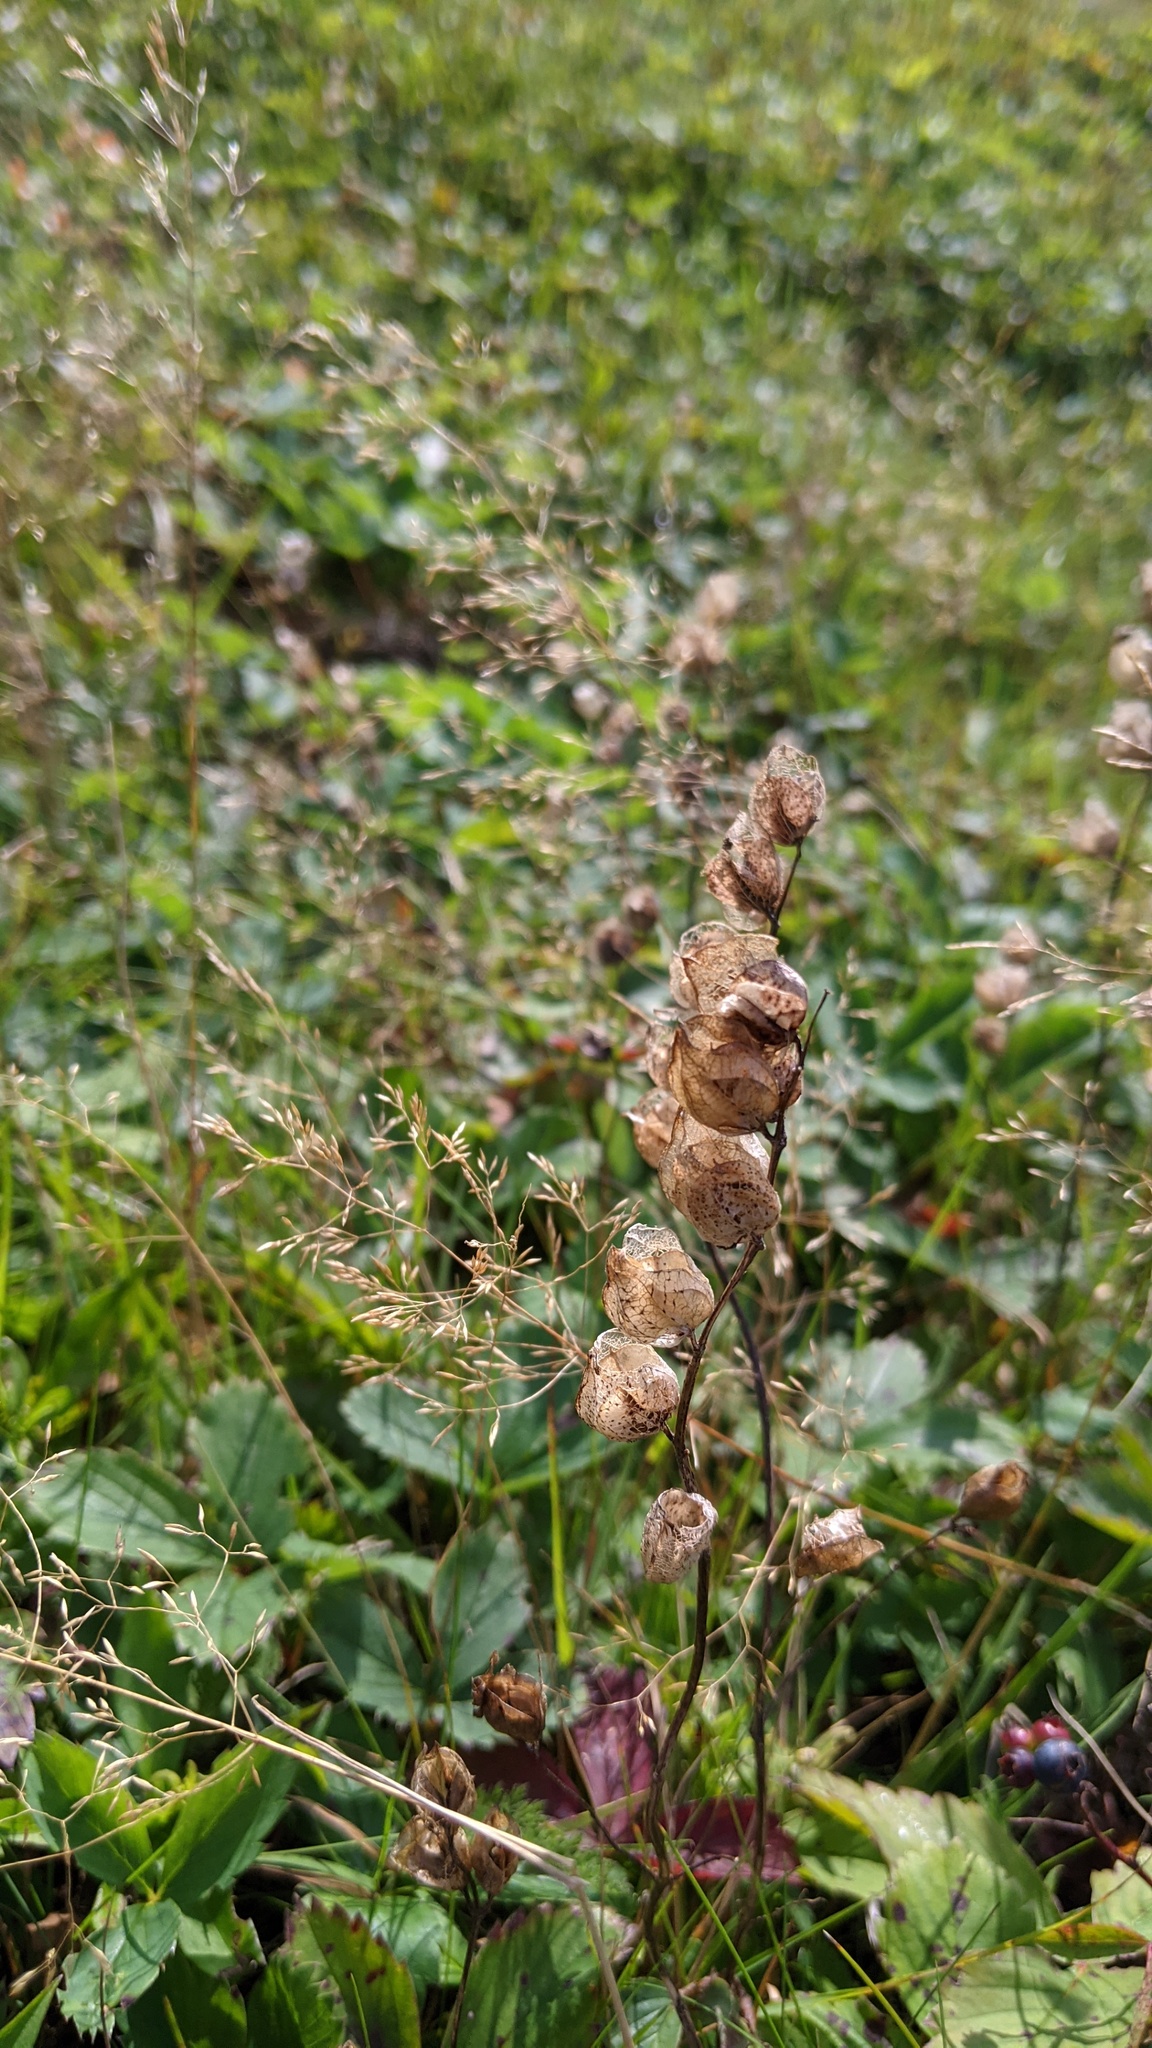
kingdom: Plantae
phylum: Tracheophyta
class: Magnoliopsida
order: Lamiales
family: Orobanchaceae
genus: Rhinanthus
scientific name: Rhinanthus minor
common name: Yellow-rattle
